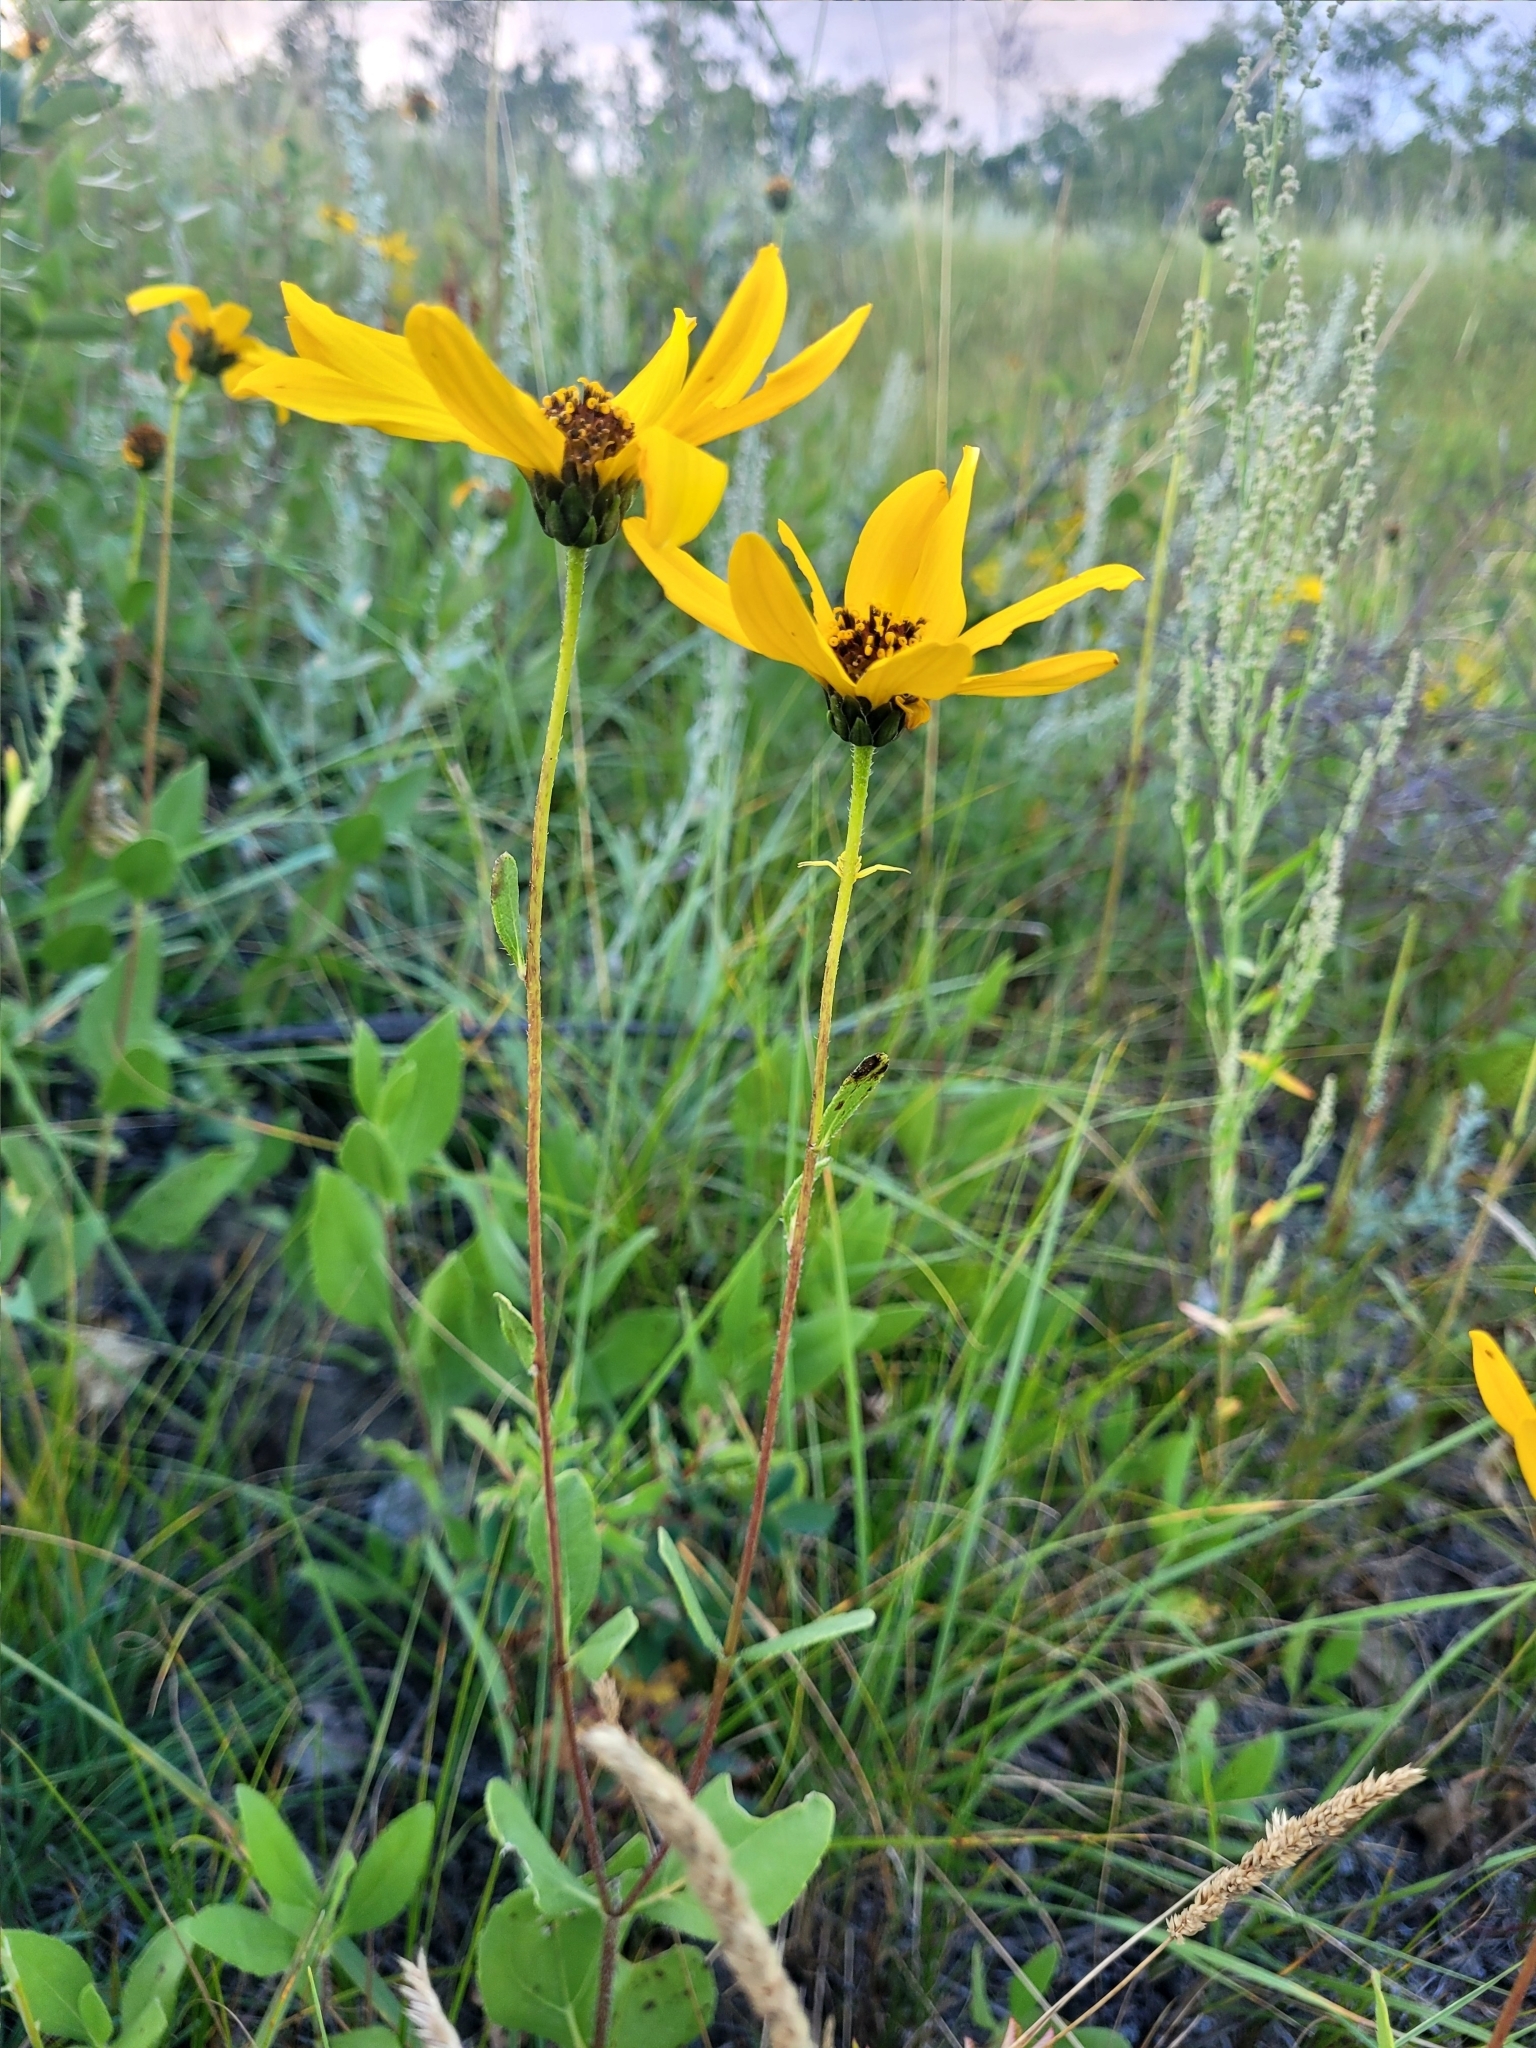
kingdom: Plantae
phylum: Tracheophyta
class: Magnoliopsida
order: Asterales
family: Asteraceae
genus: Helianthus
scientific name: Helianthus pauciflorus
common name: Stiff sunflower
